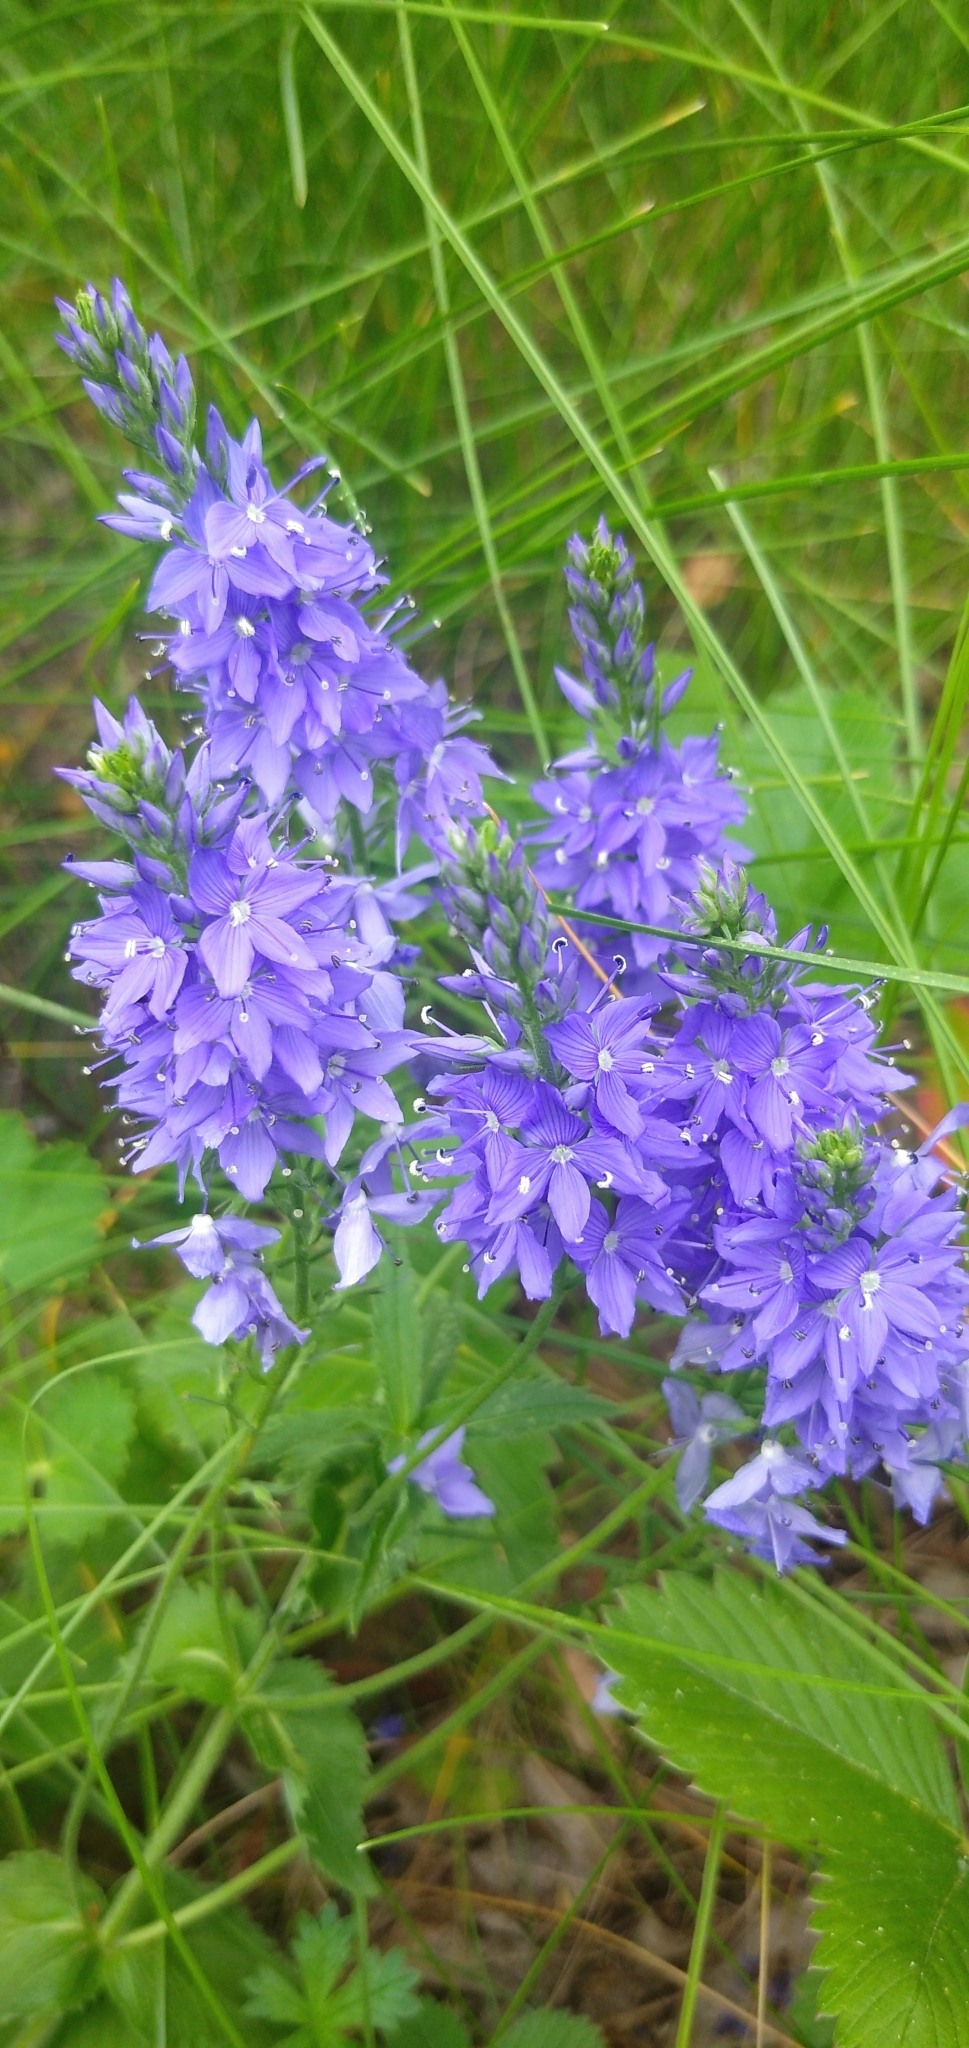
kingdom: Plantae
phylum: Tracheophyta
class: Magnoliopsida
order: Lamiales
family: Plantaginaceae
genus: Veronica
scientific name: Veronica teucrium
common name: Large speedwell
